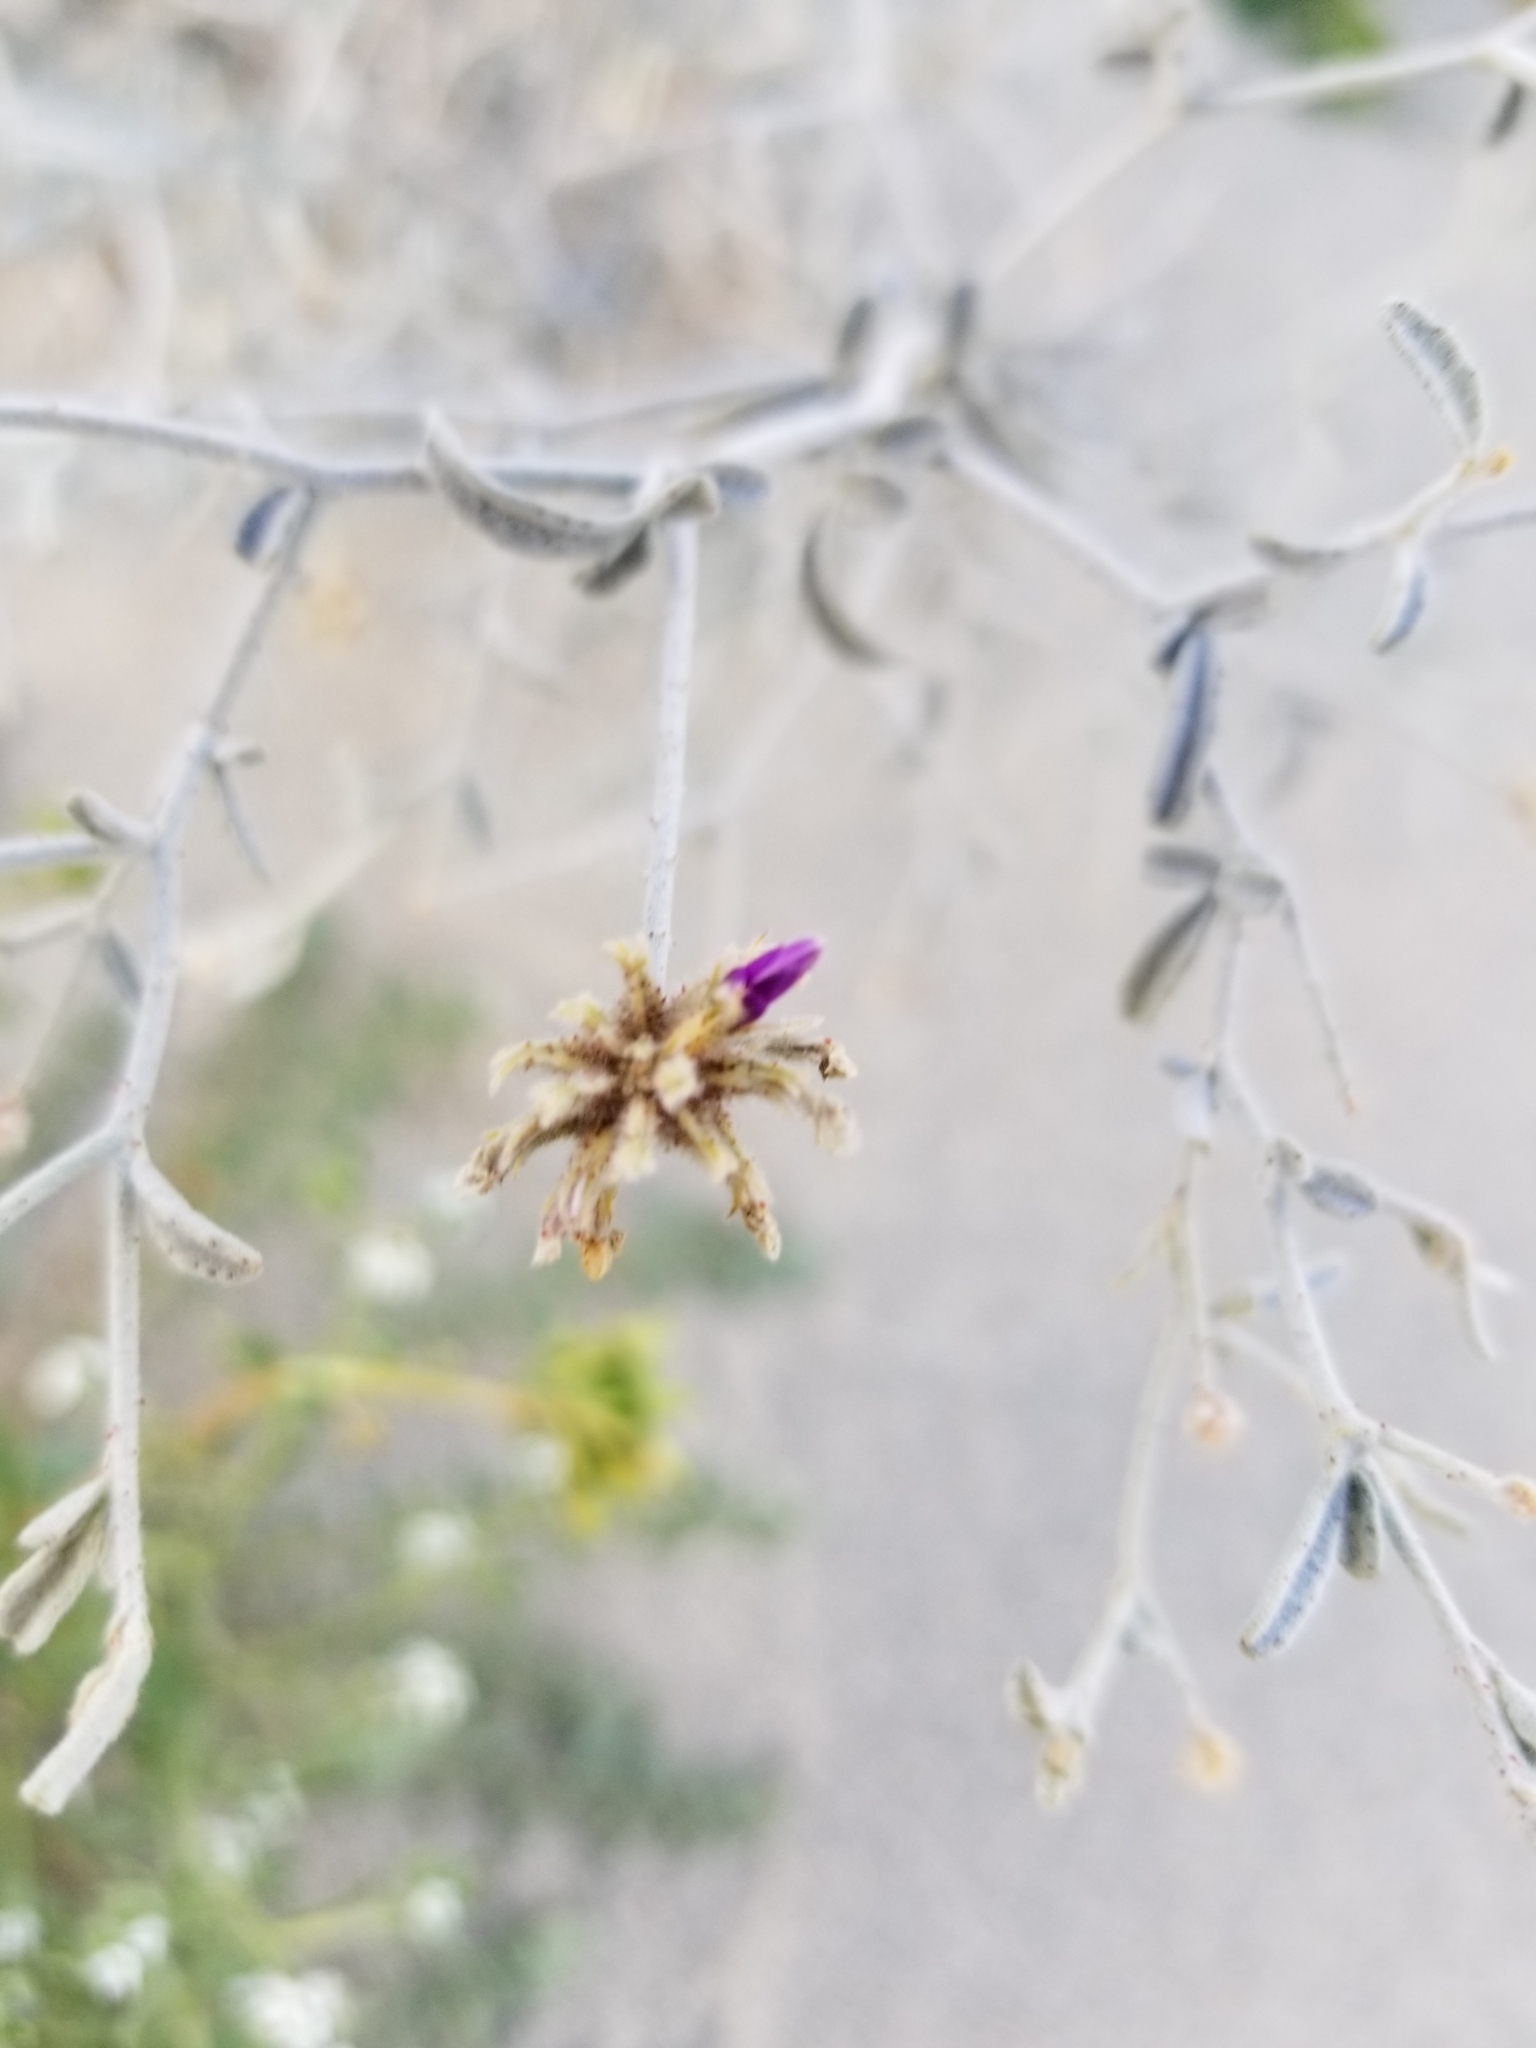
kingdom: Plantae
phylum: Tracheophyta
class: Magnoliopsida
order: Fabales
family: Fabaceae
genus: Psorothamnus
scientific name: Psorothamnus emoryi
